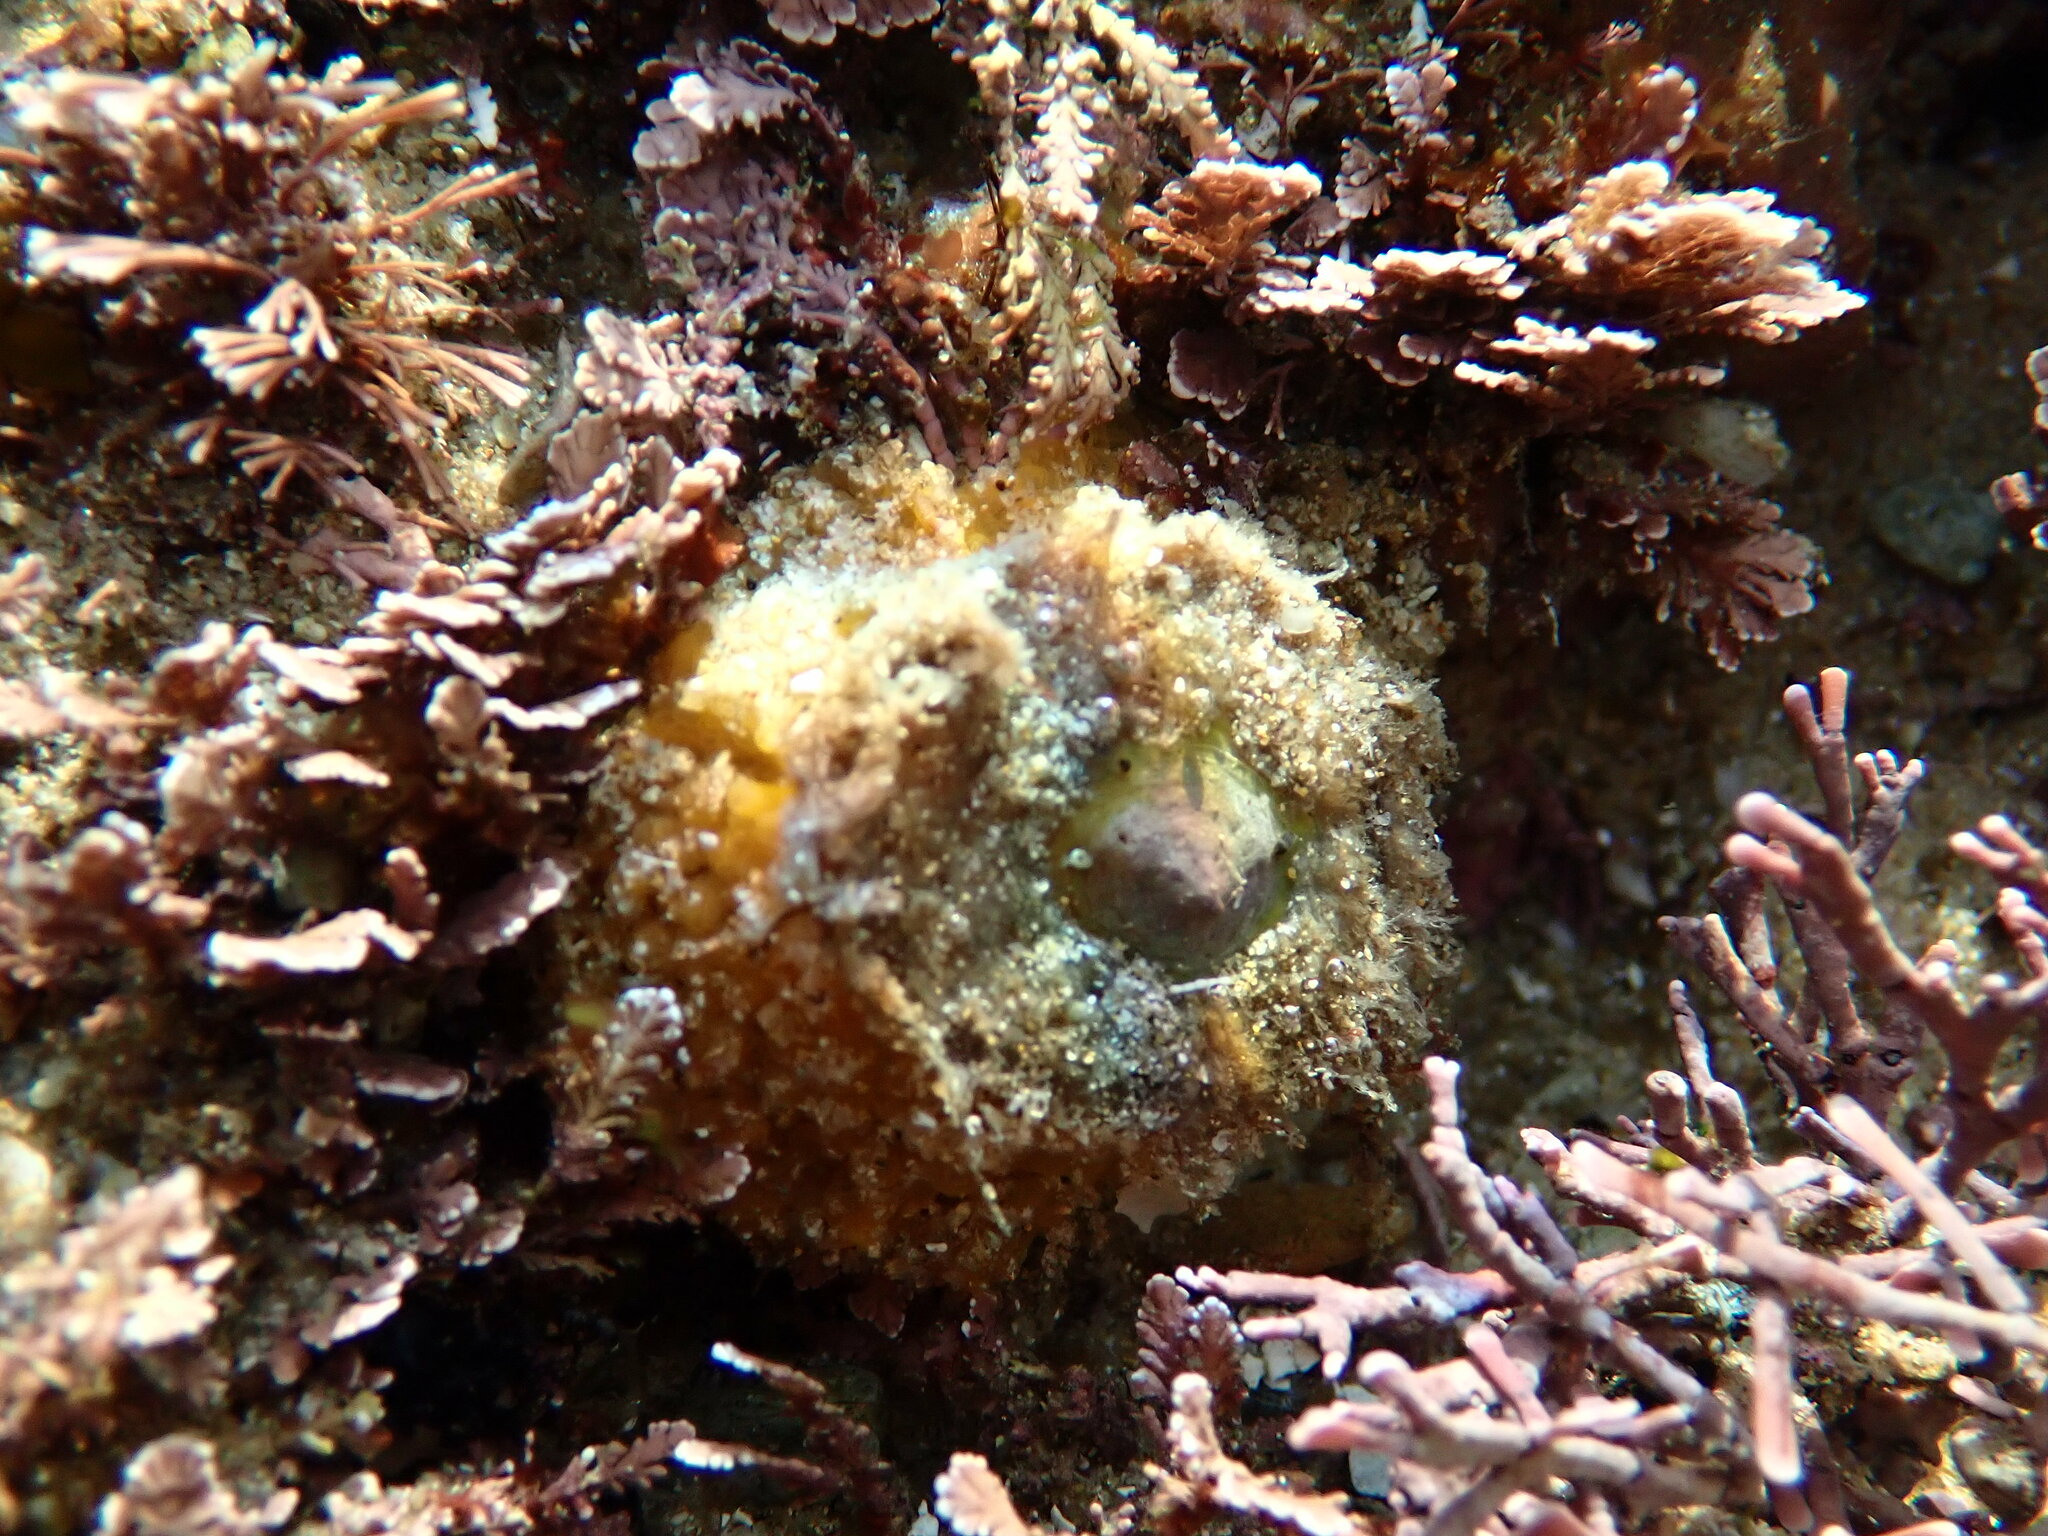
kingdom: Animalia
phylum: Mollusca
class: Gastropoda
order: Umbraculida
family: Umbraculidae
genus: Umbraculum
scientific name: Umbraculum umbraculum
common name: Atlantic umbrella slug
